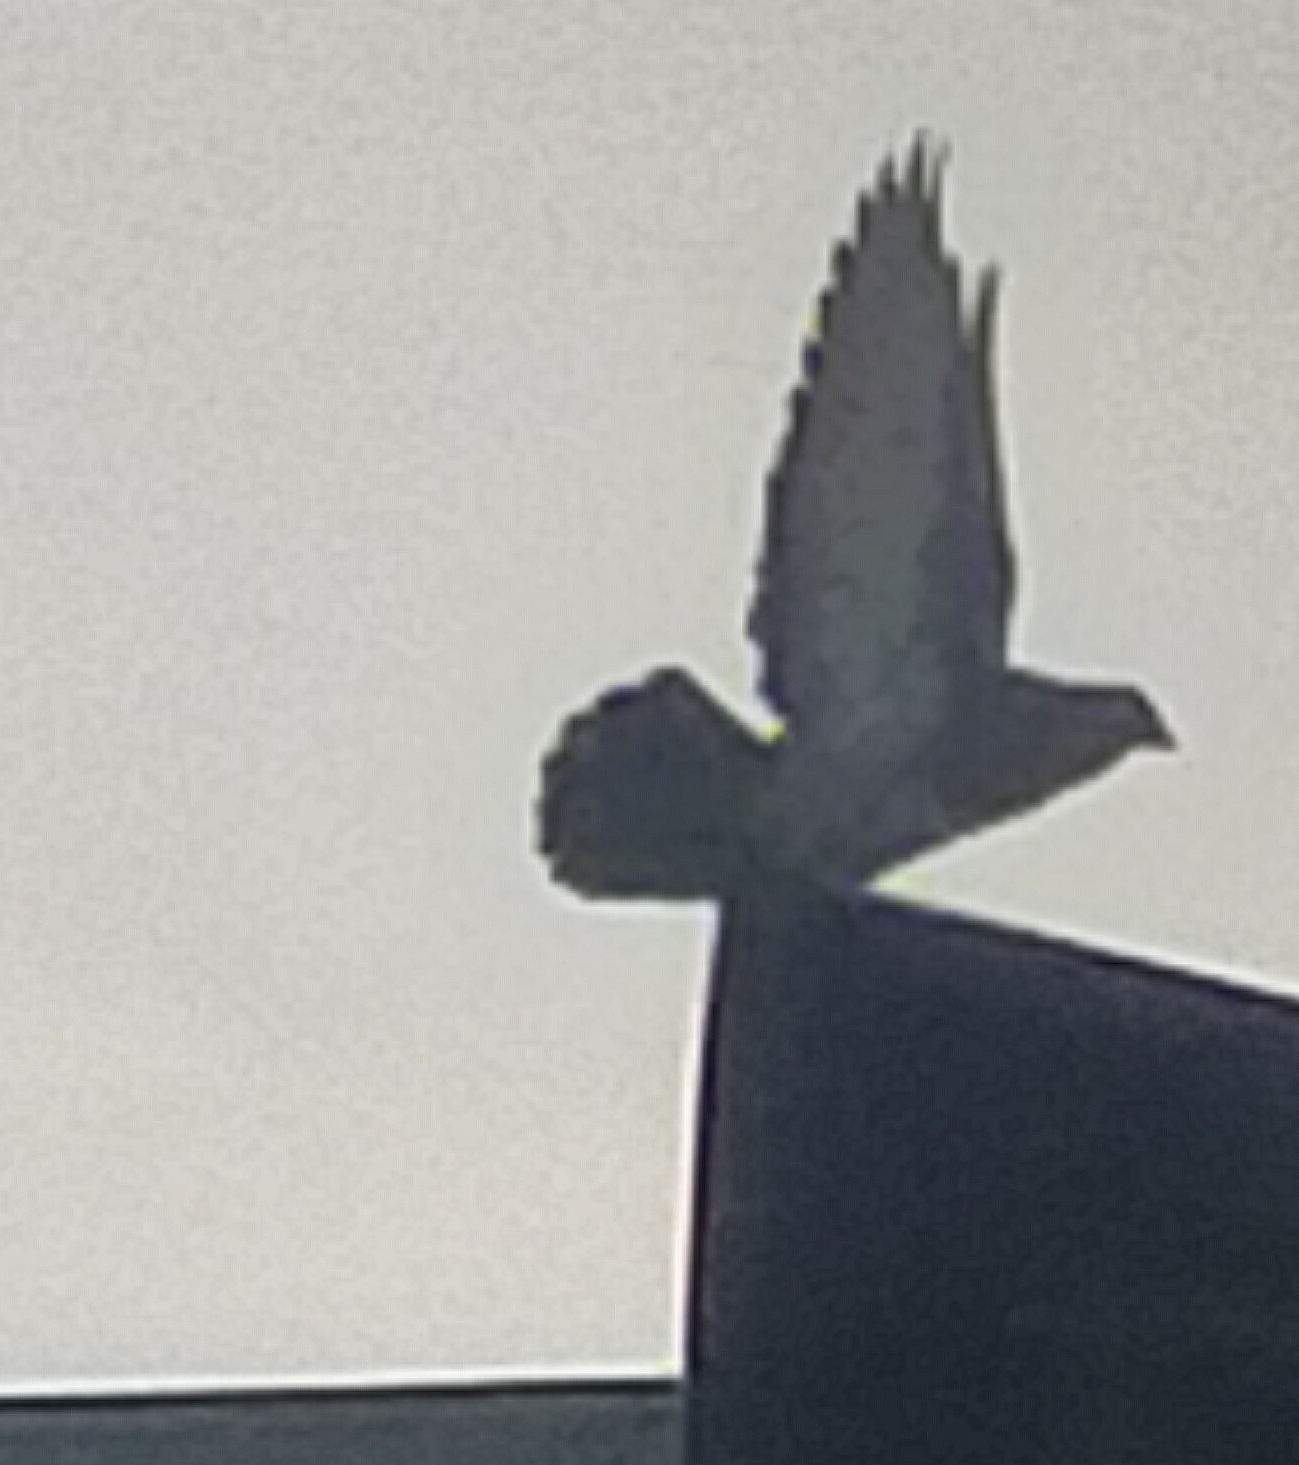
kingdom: Animalia
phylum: Chordata
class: Aves
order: Columbiformes
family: Columbidae
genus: Columba
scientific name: Columba livia
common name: Rock pigeon
